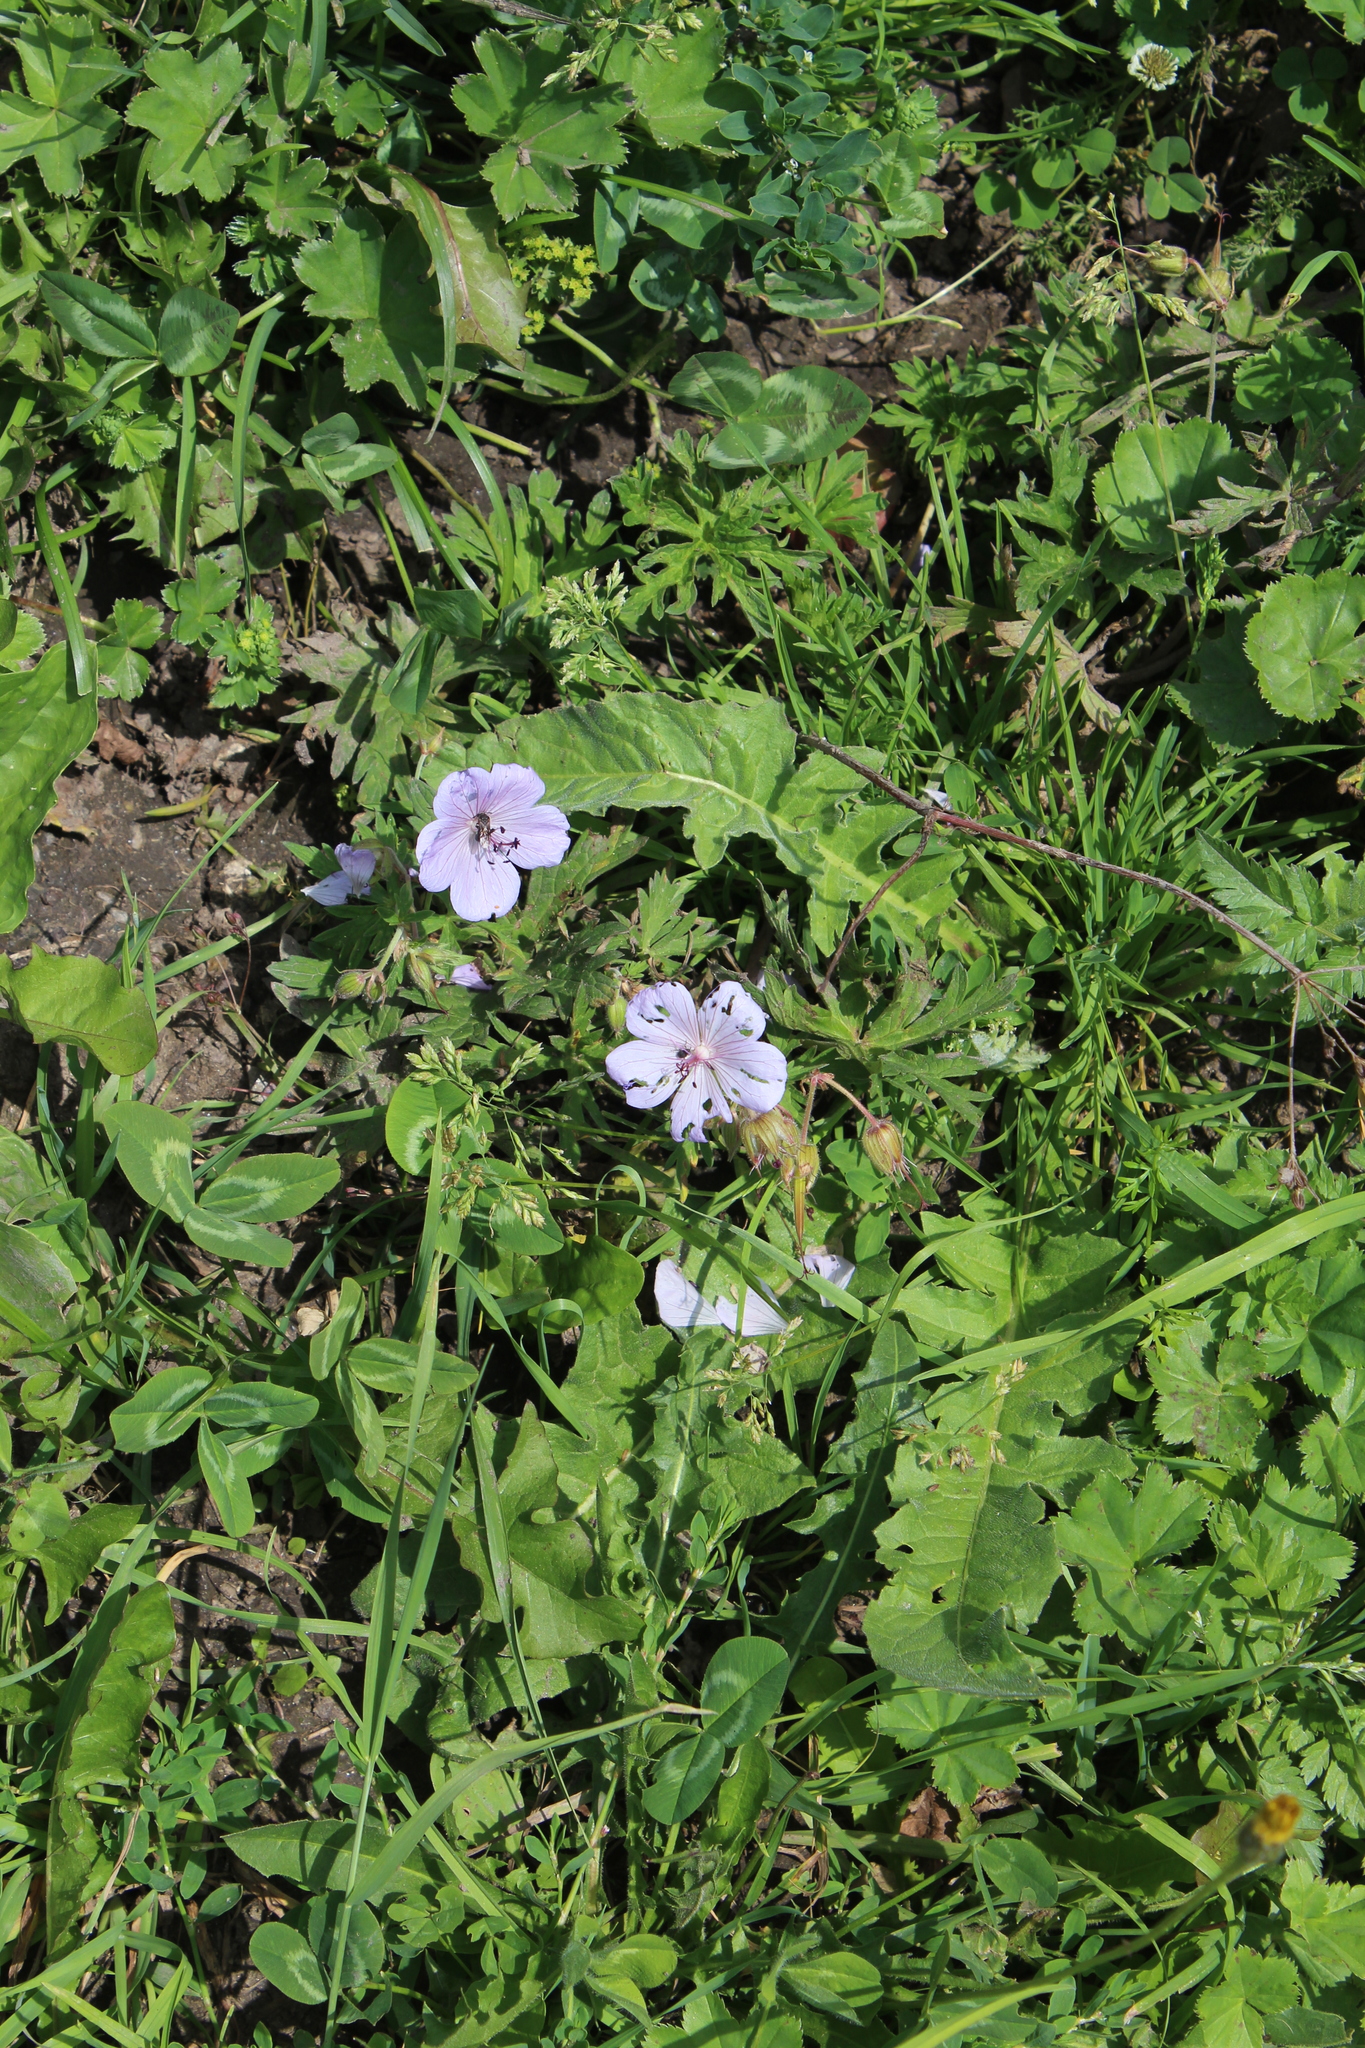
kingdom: Plantae
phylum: Tracheophyta
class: Magnoliopsida
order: Geraniales
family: Geraniaceae
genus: Geranium
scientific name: Geranium pratense
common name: Meadow crane's-bill
